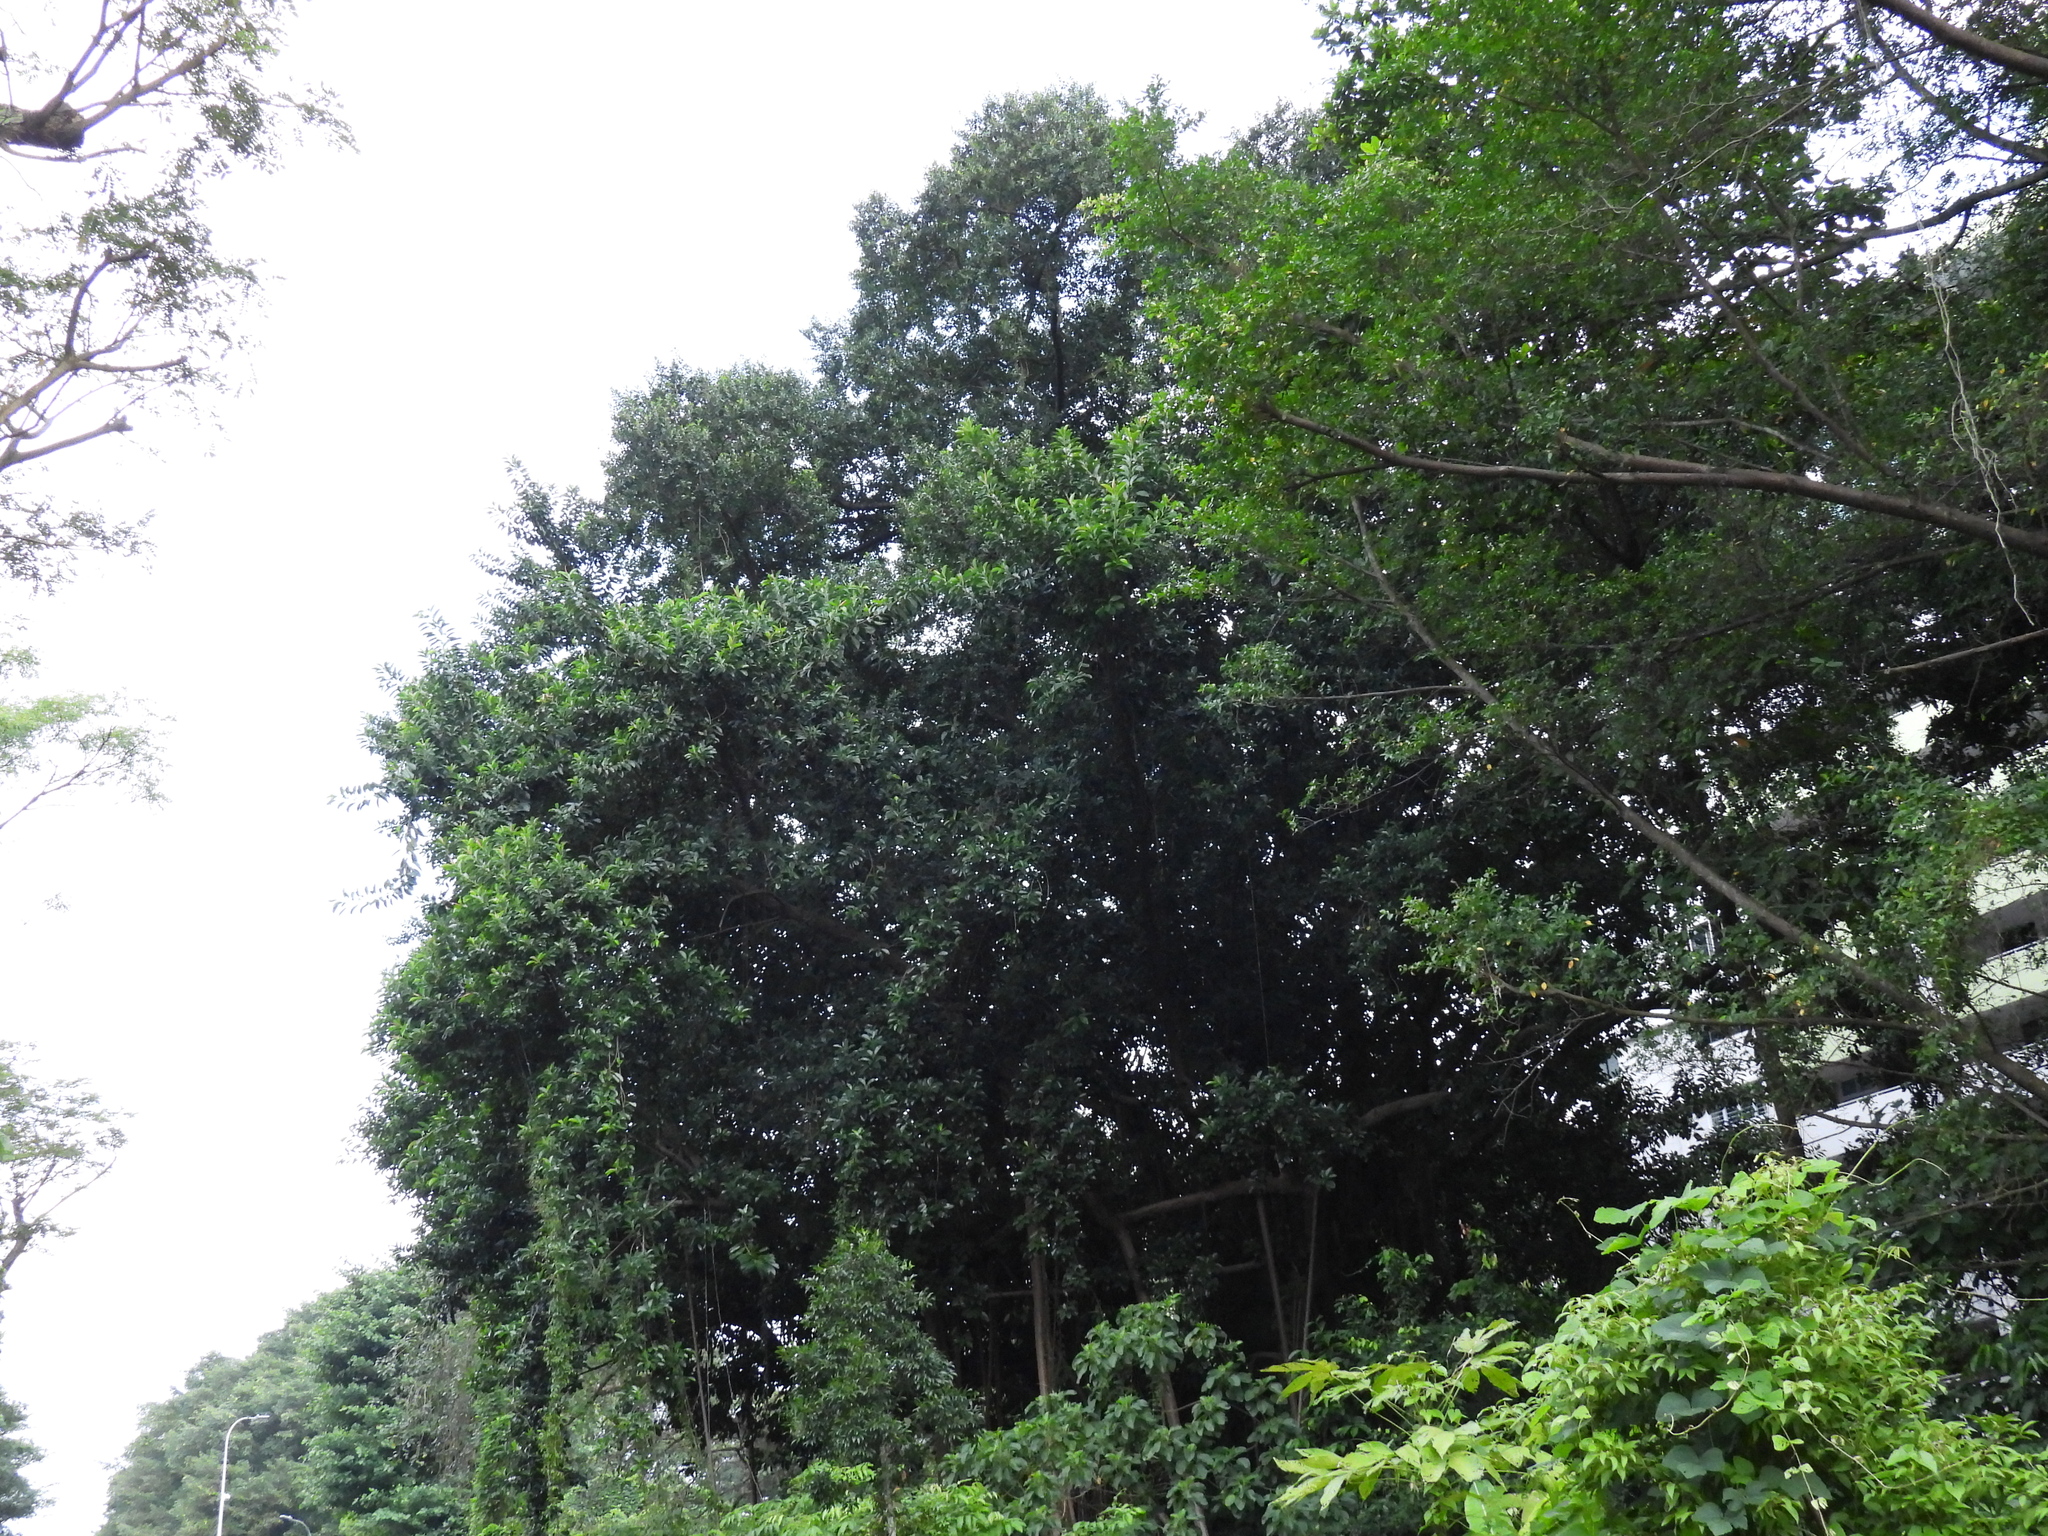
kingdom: Plantae
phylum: Tracheophyta
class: Magnoliopsida
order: Rosales
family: Moraceae
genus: Ficus
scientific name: Ficus elastica
